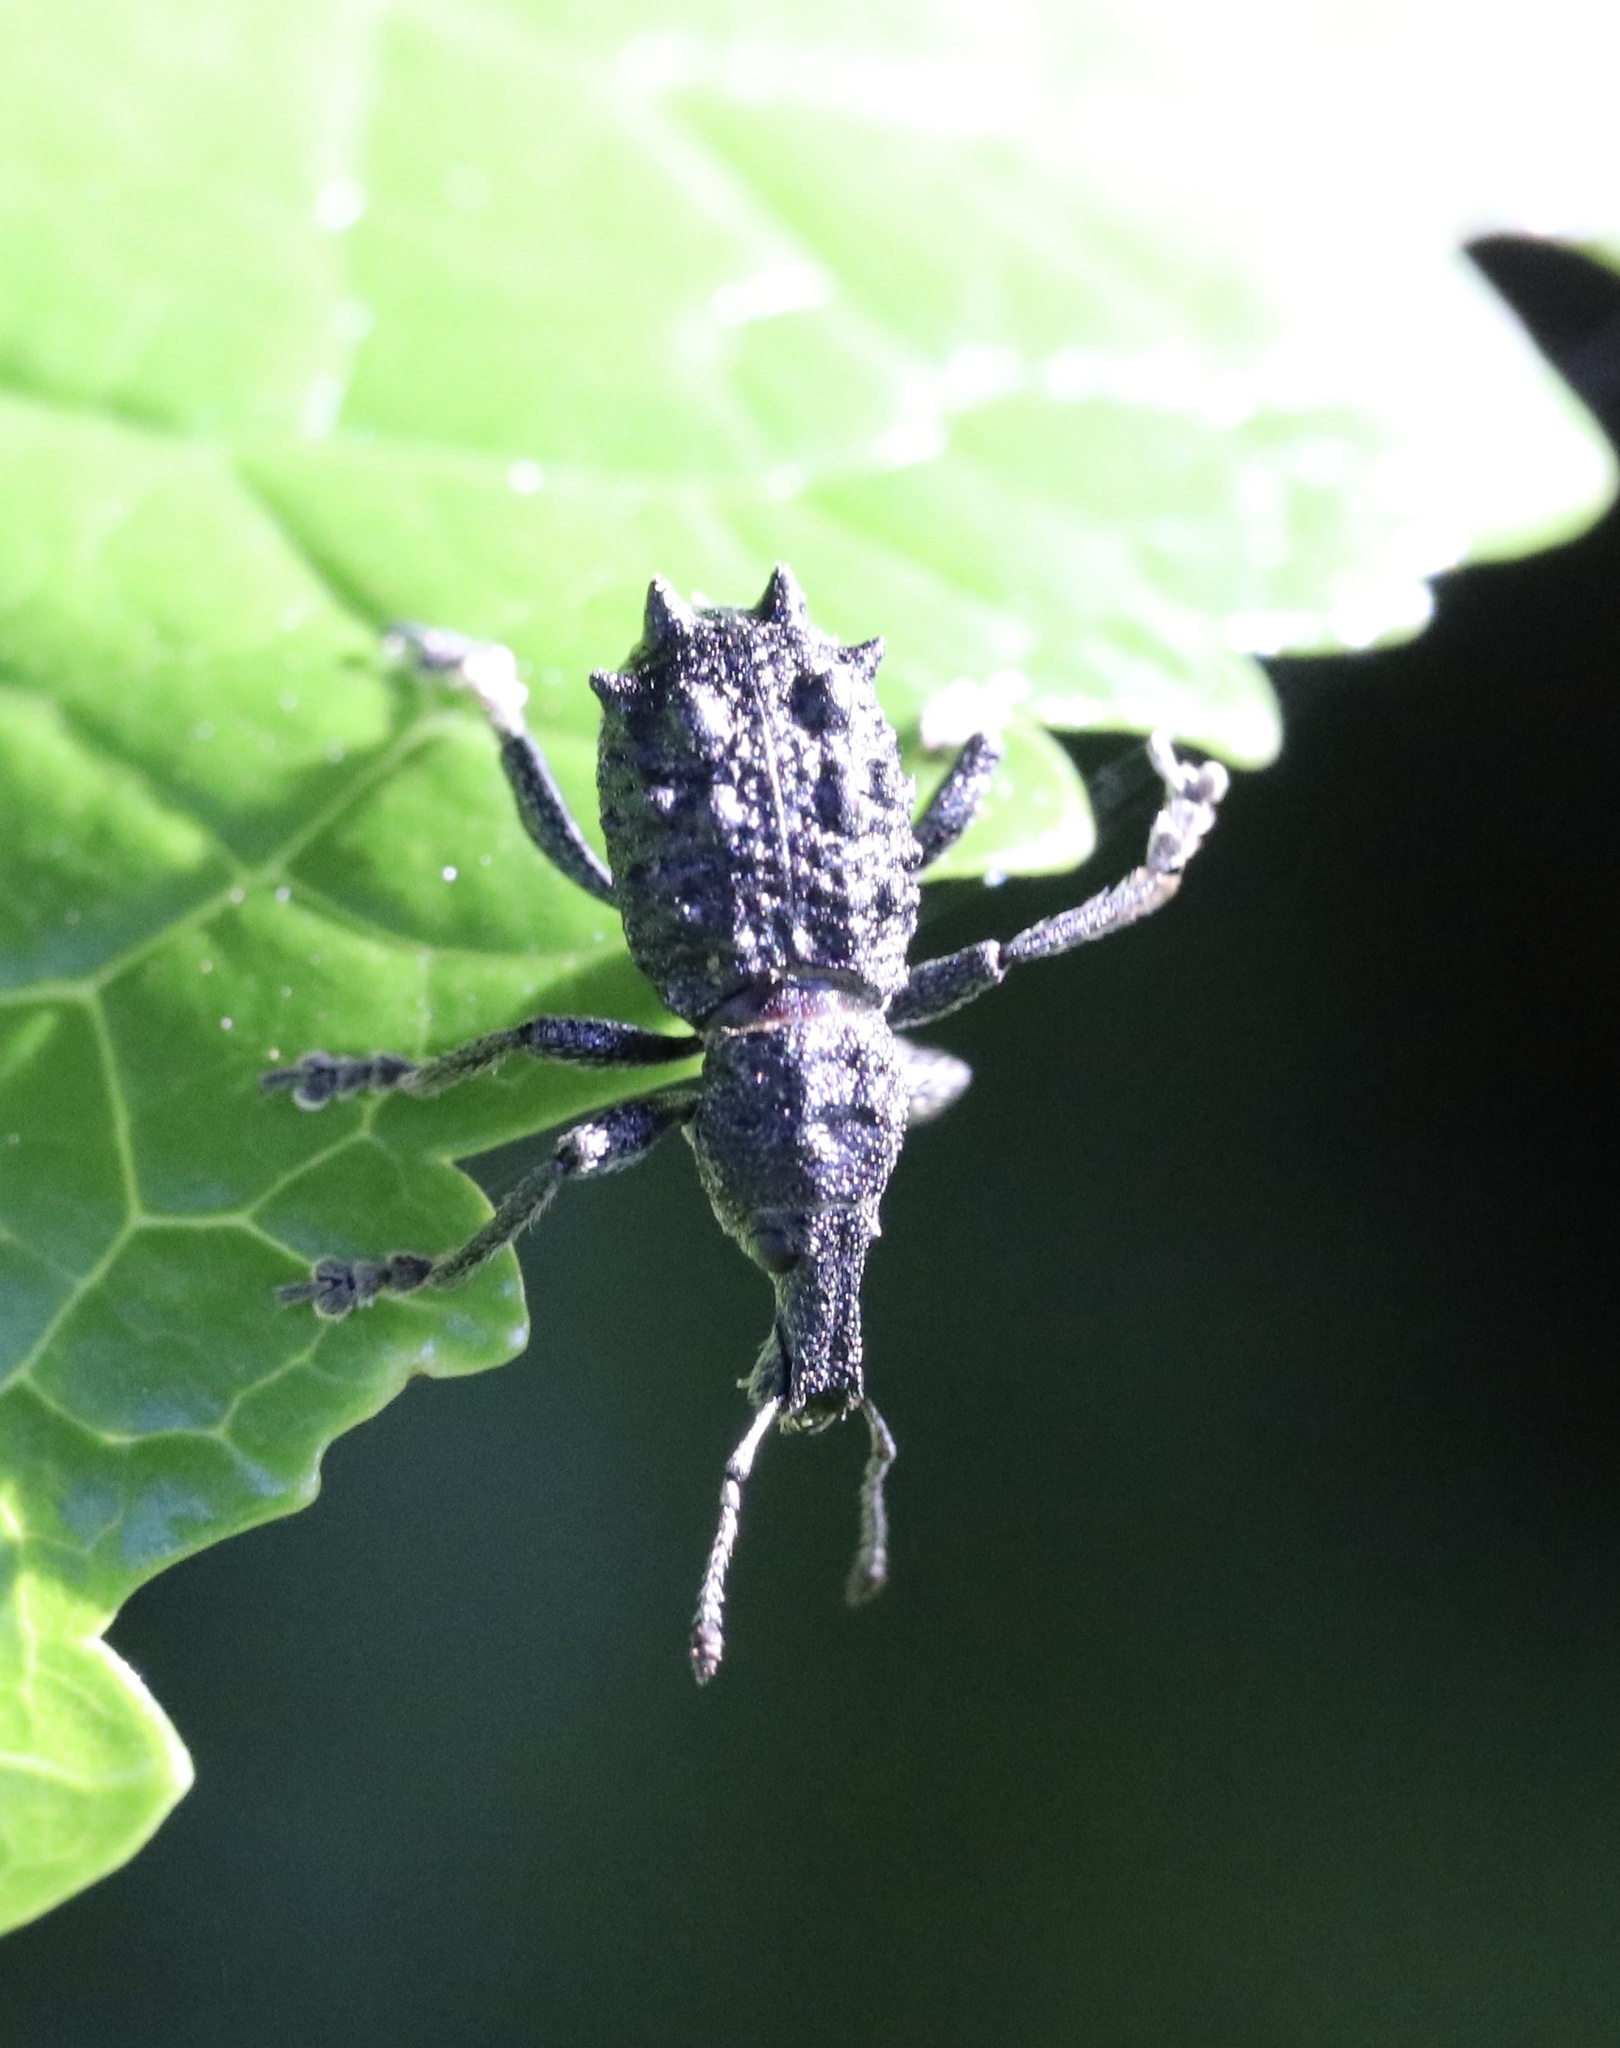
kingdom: Animalia
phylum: Arthropoda
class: Insecta
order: Coleoptera
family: Curculionidae
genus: Megalometis
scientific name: Megalometis spiniferus
